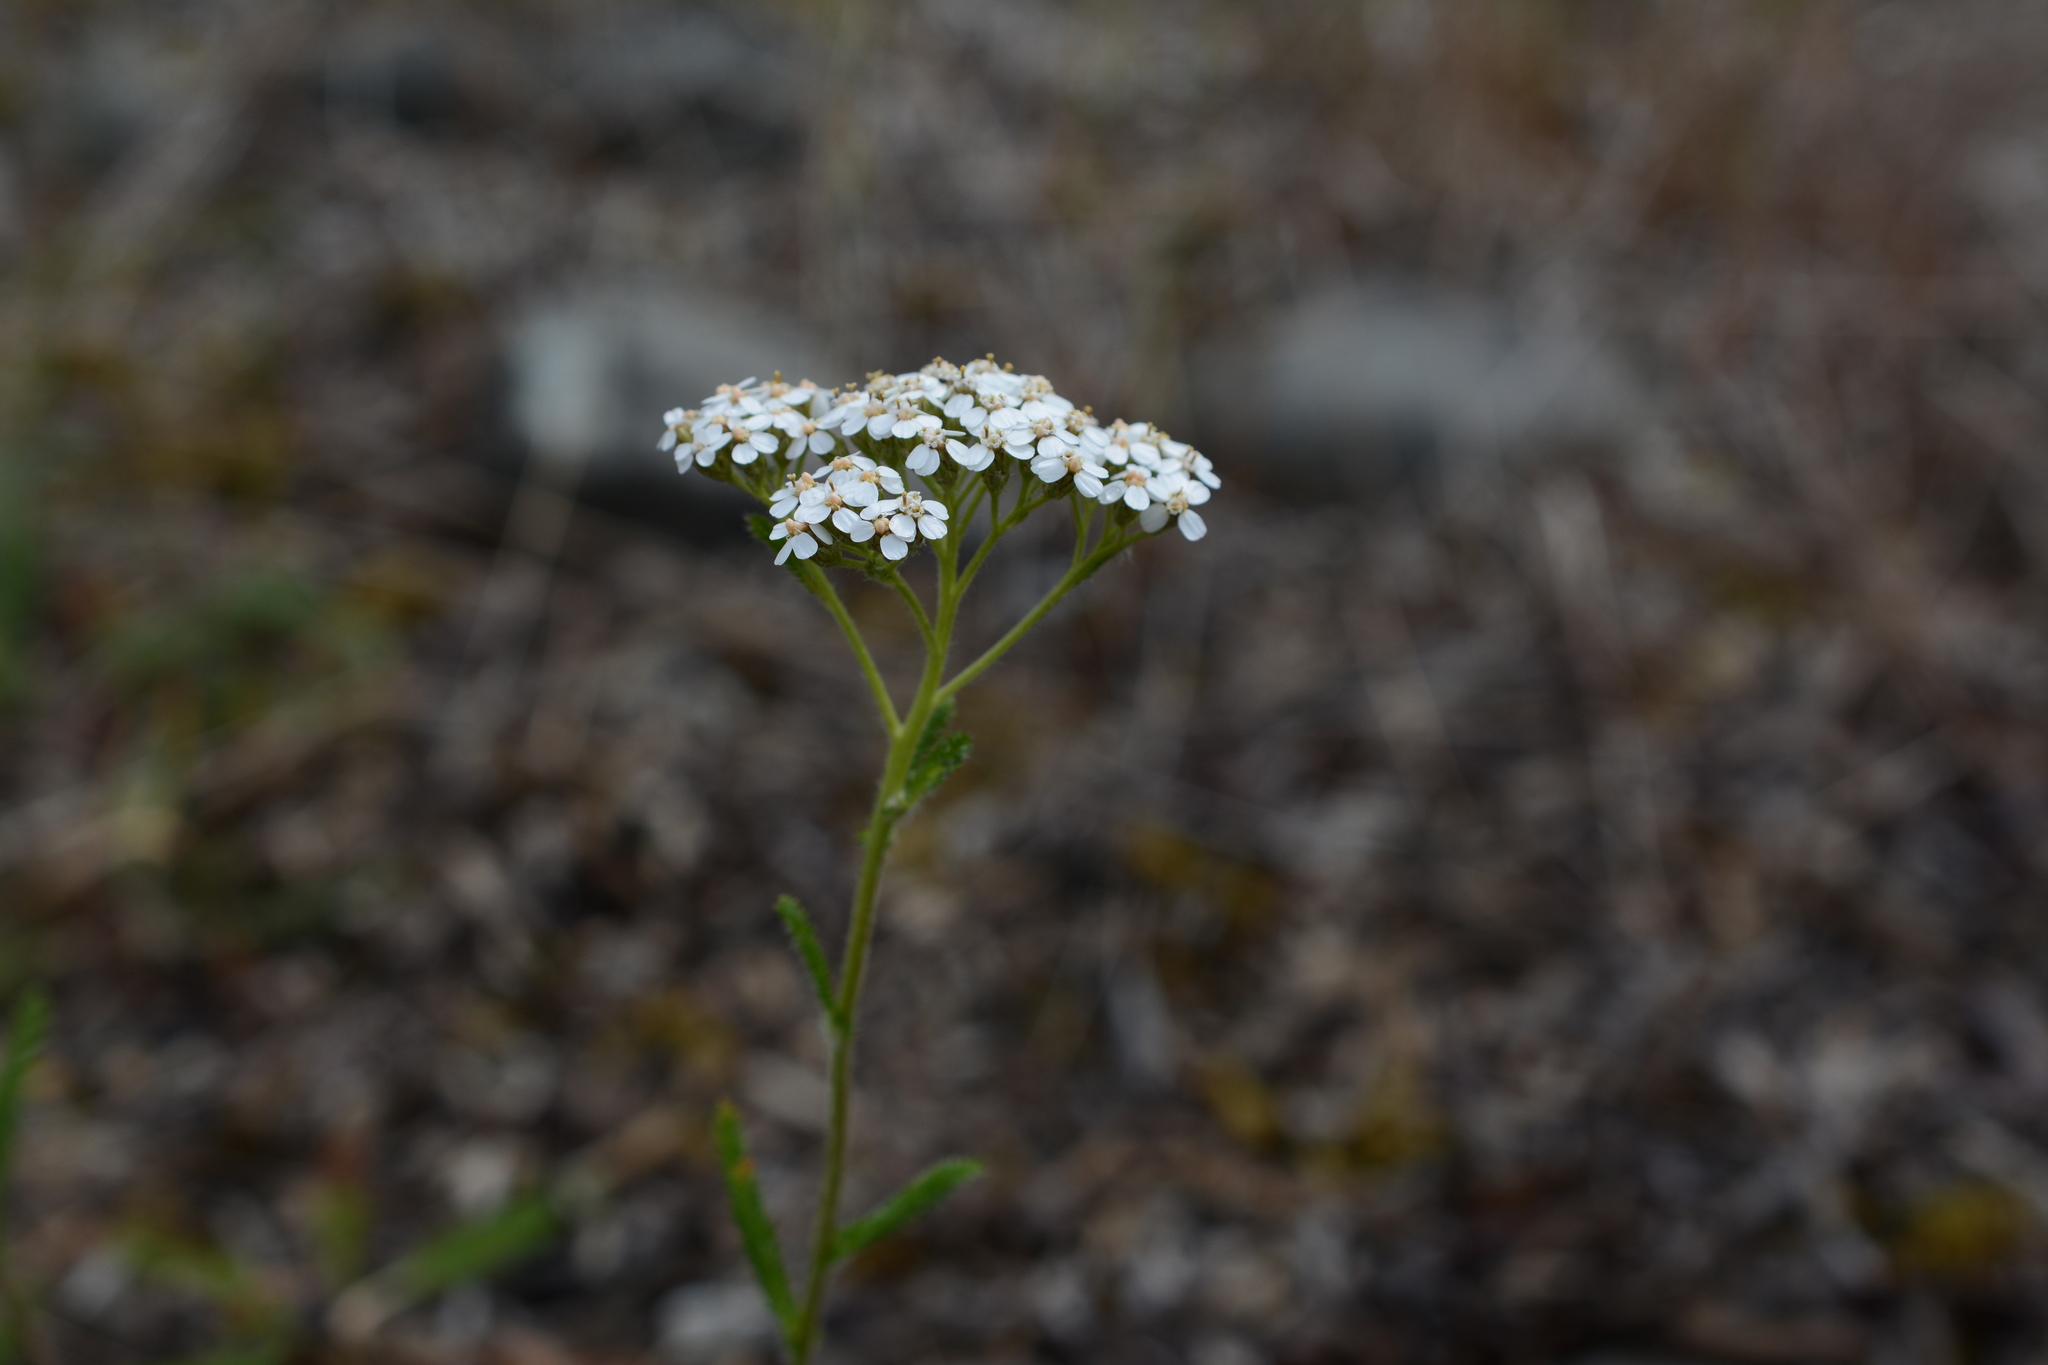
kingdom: Plantae
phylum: Tracheophyta
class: Magnoliopsida
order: Asterales
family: Asteraceae
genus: Achillea
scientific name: Achillea millefolium
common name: Yarrow
